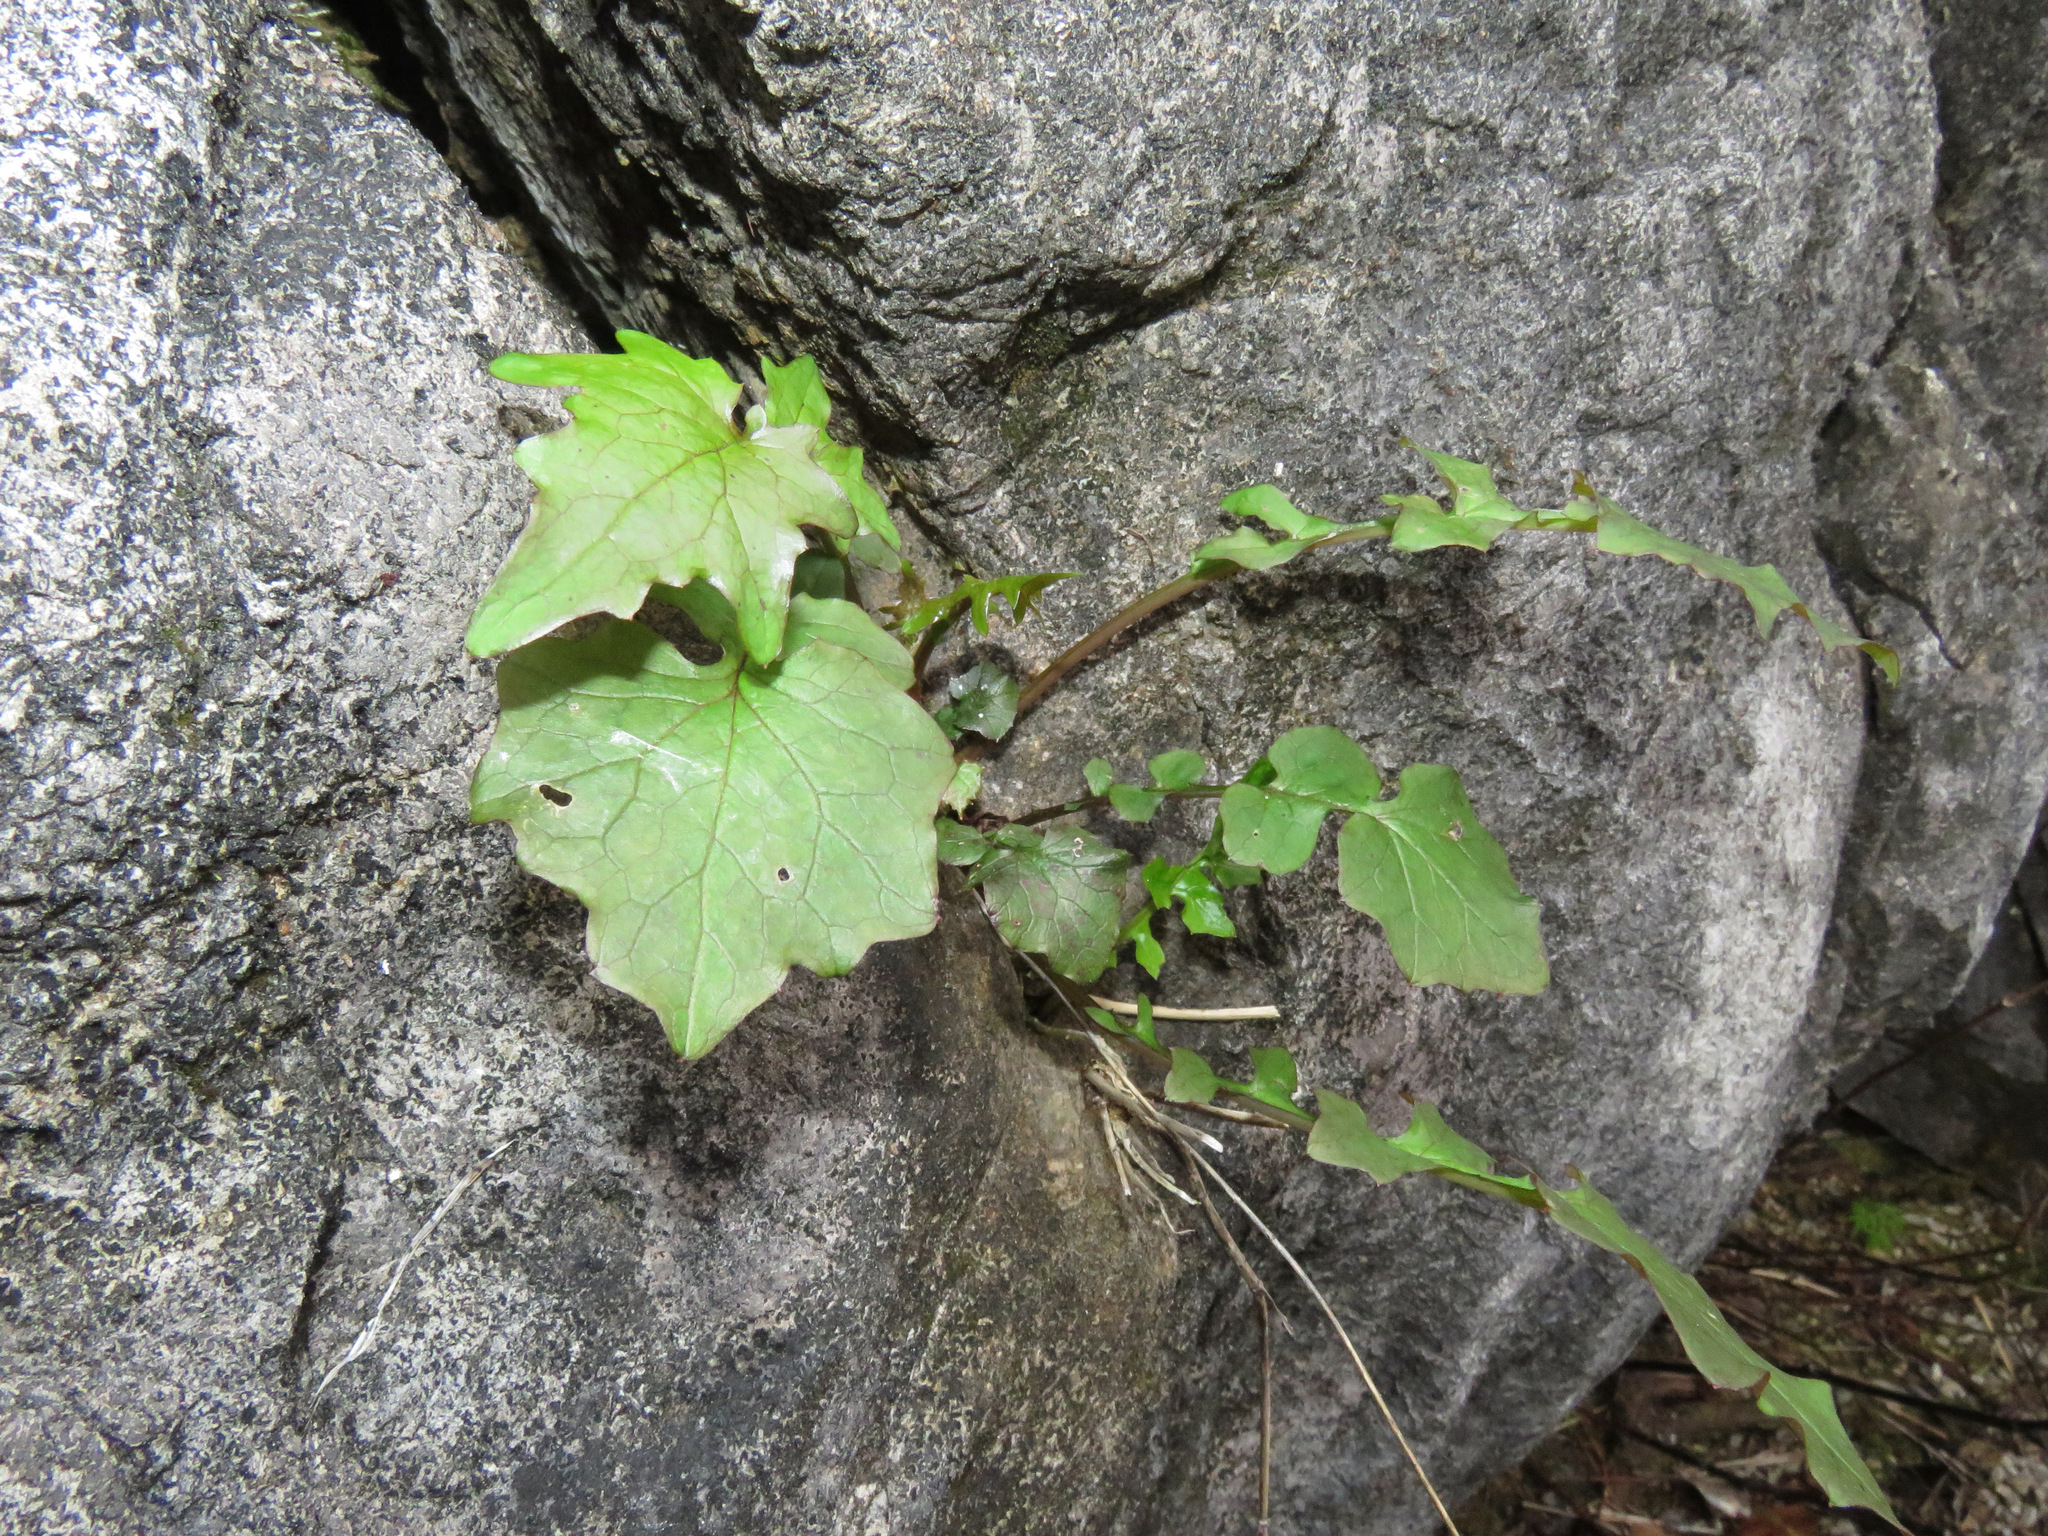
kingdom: Plantae
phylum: Tracheophyta
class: Magnoliopsida
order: Asterales
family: Asteraceae
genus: Mycelis
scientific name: Mycelis muralis
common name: Wall lettuce
